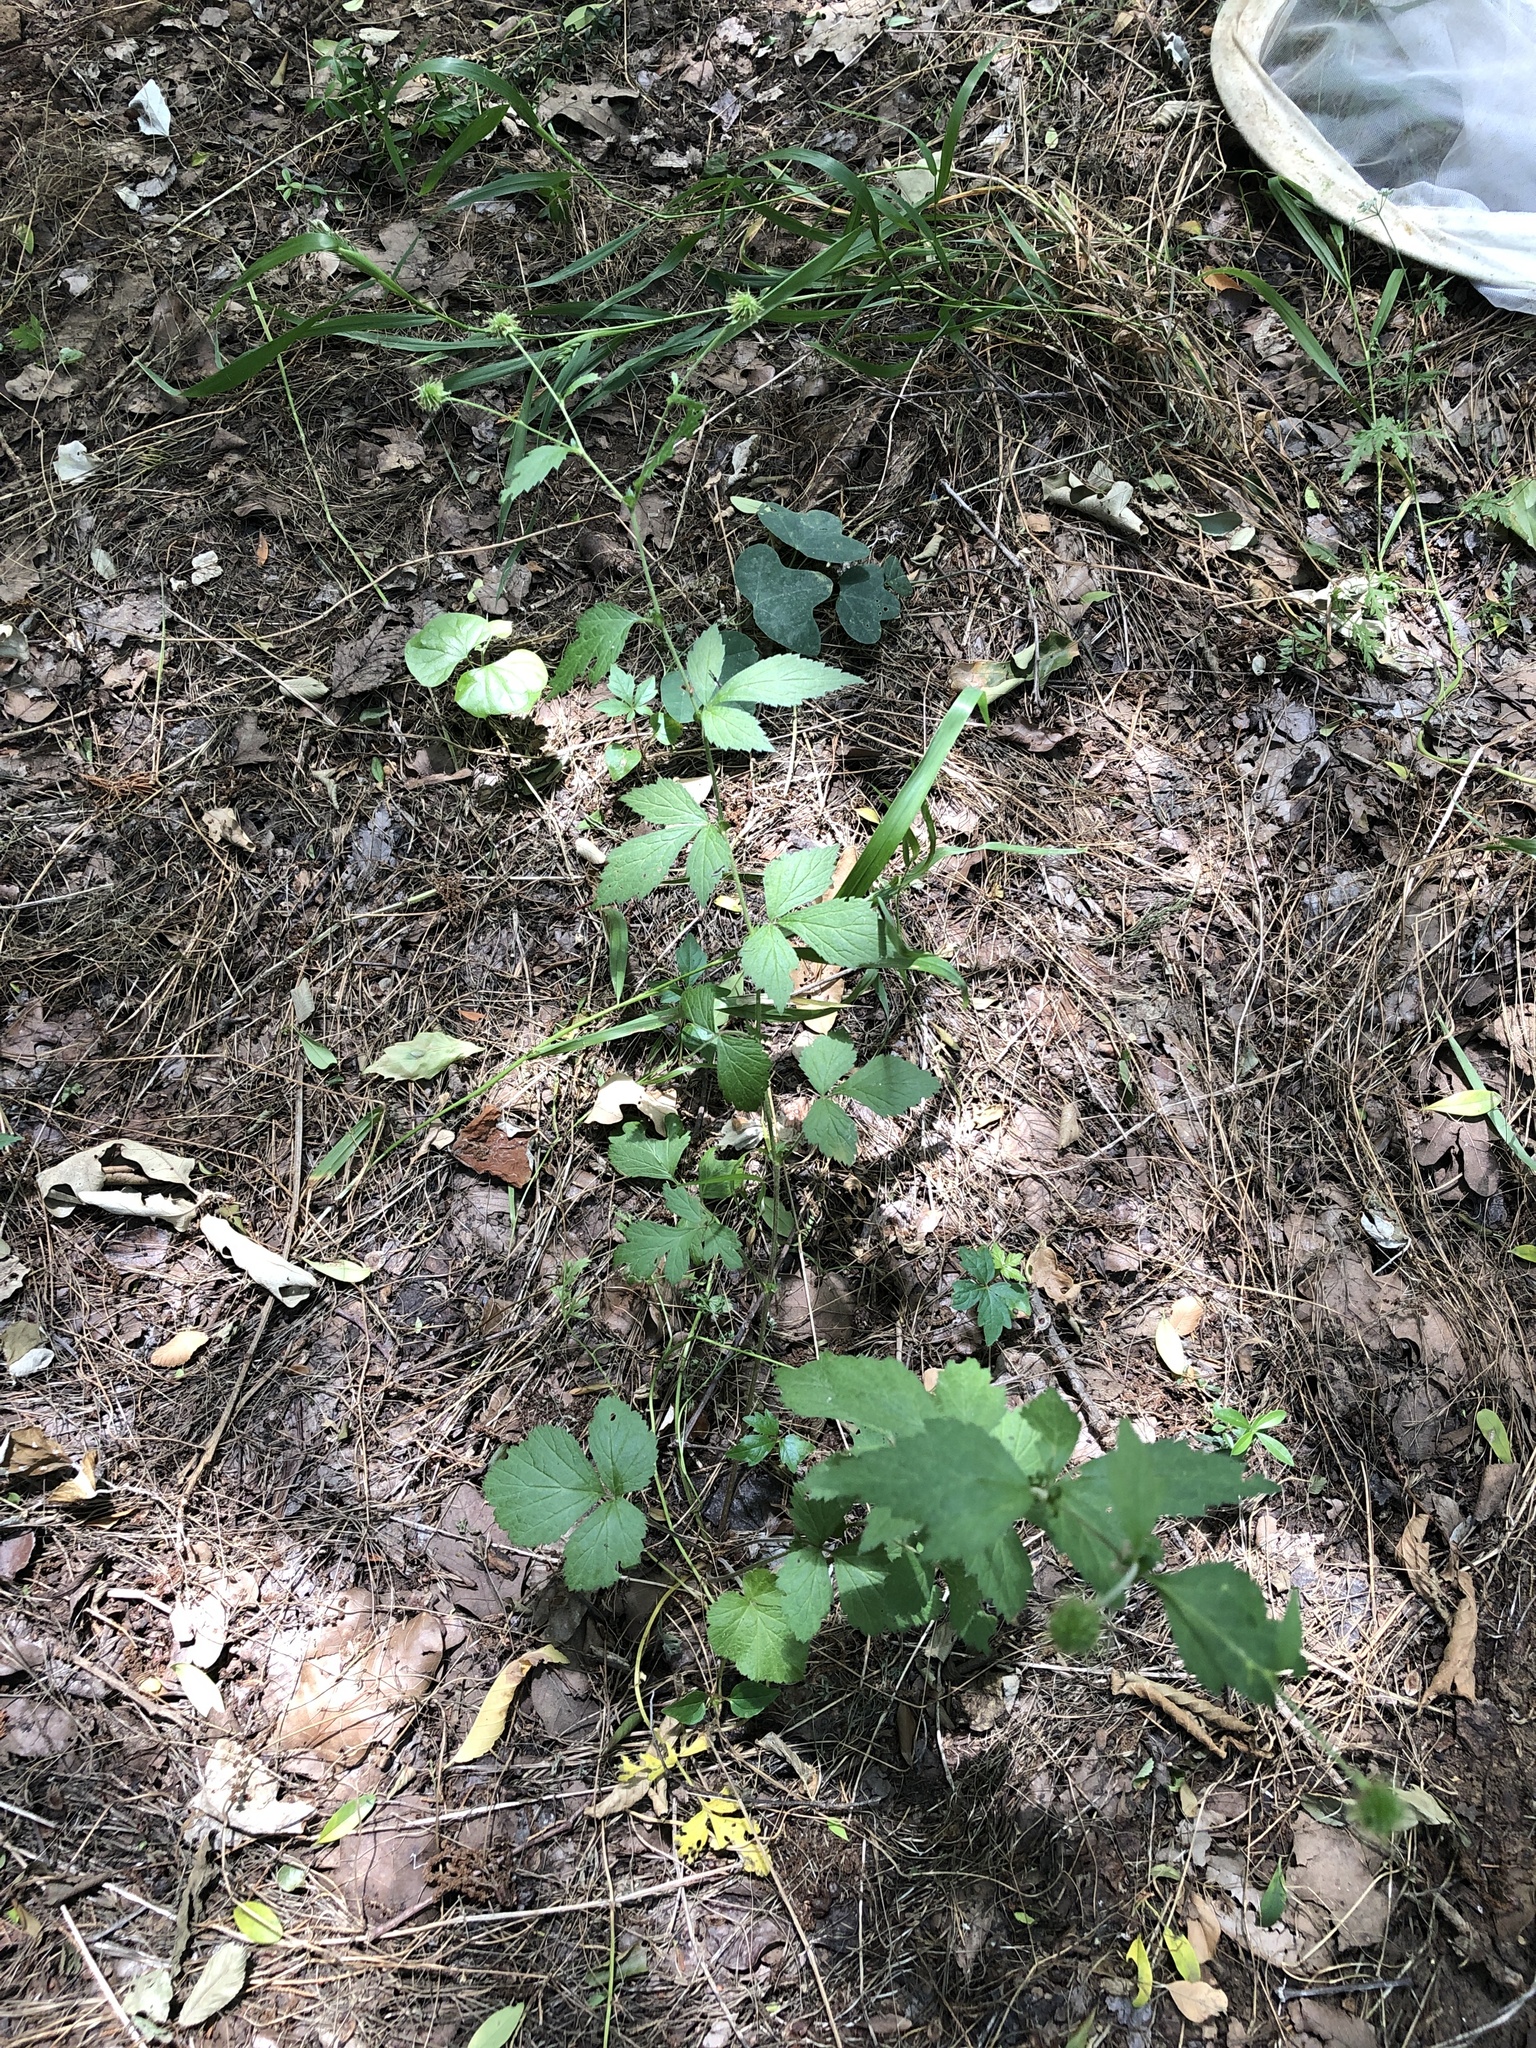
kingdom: Plantae
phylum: Tracheophyta
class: Magnoliopsida
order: Rosales
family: Rosaceae
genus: Geum
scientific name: Geum canadense
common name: White avens
